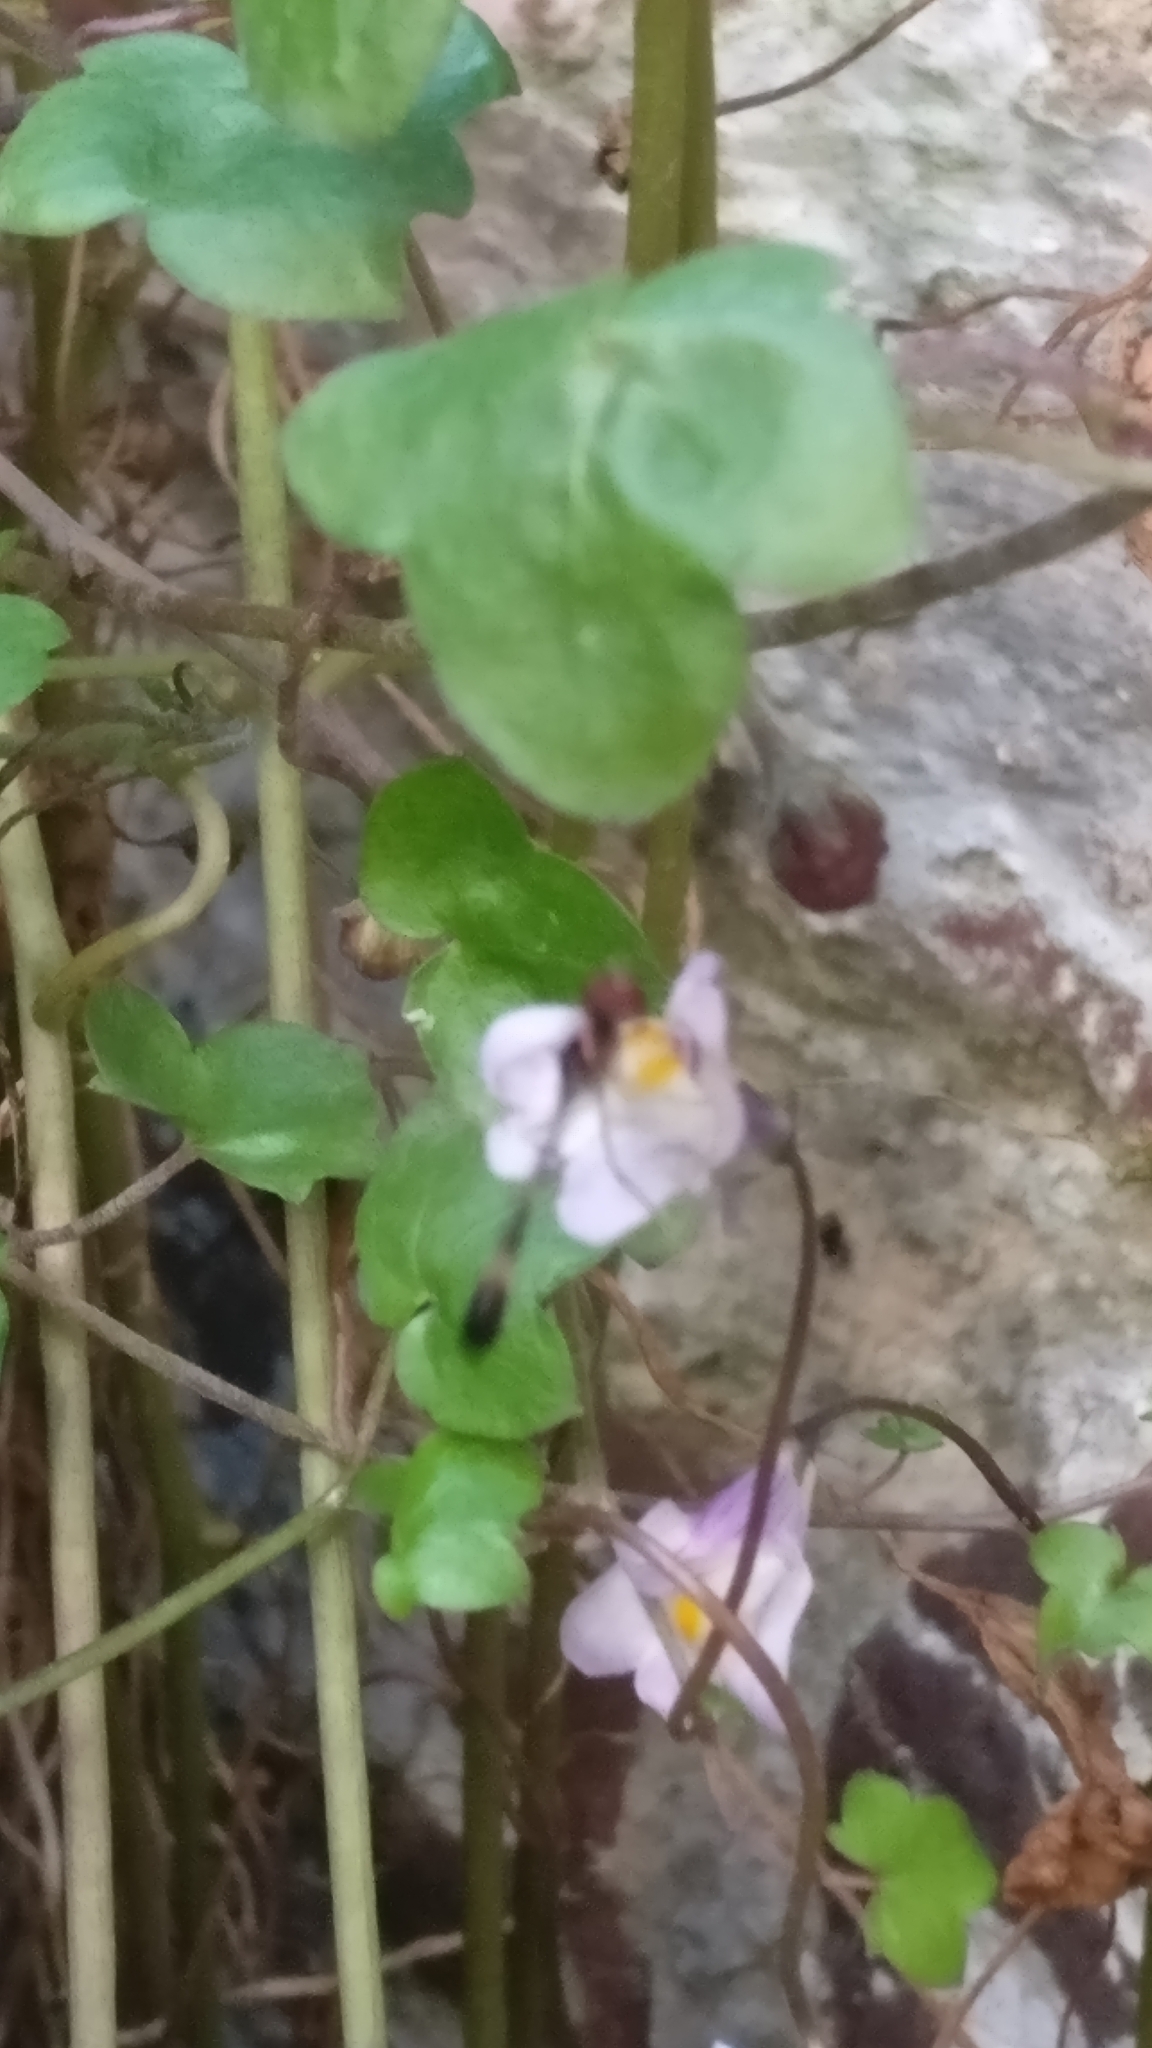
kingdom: Animalia
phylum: Arthropoda
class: Insecta
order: Diptera
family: Syrphidae
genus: Baccha
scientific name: Baccha elongata
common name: Common dainty
